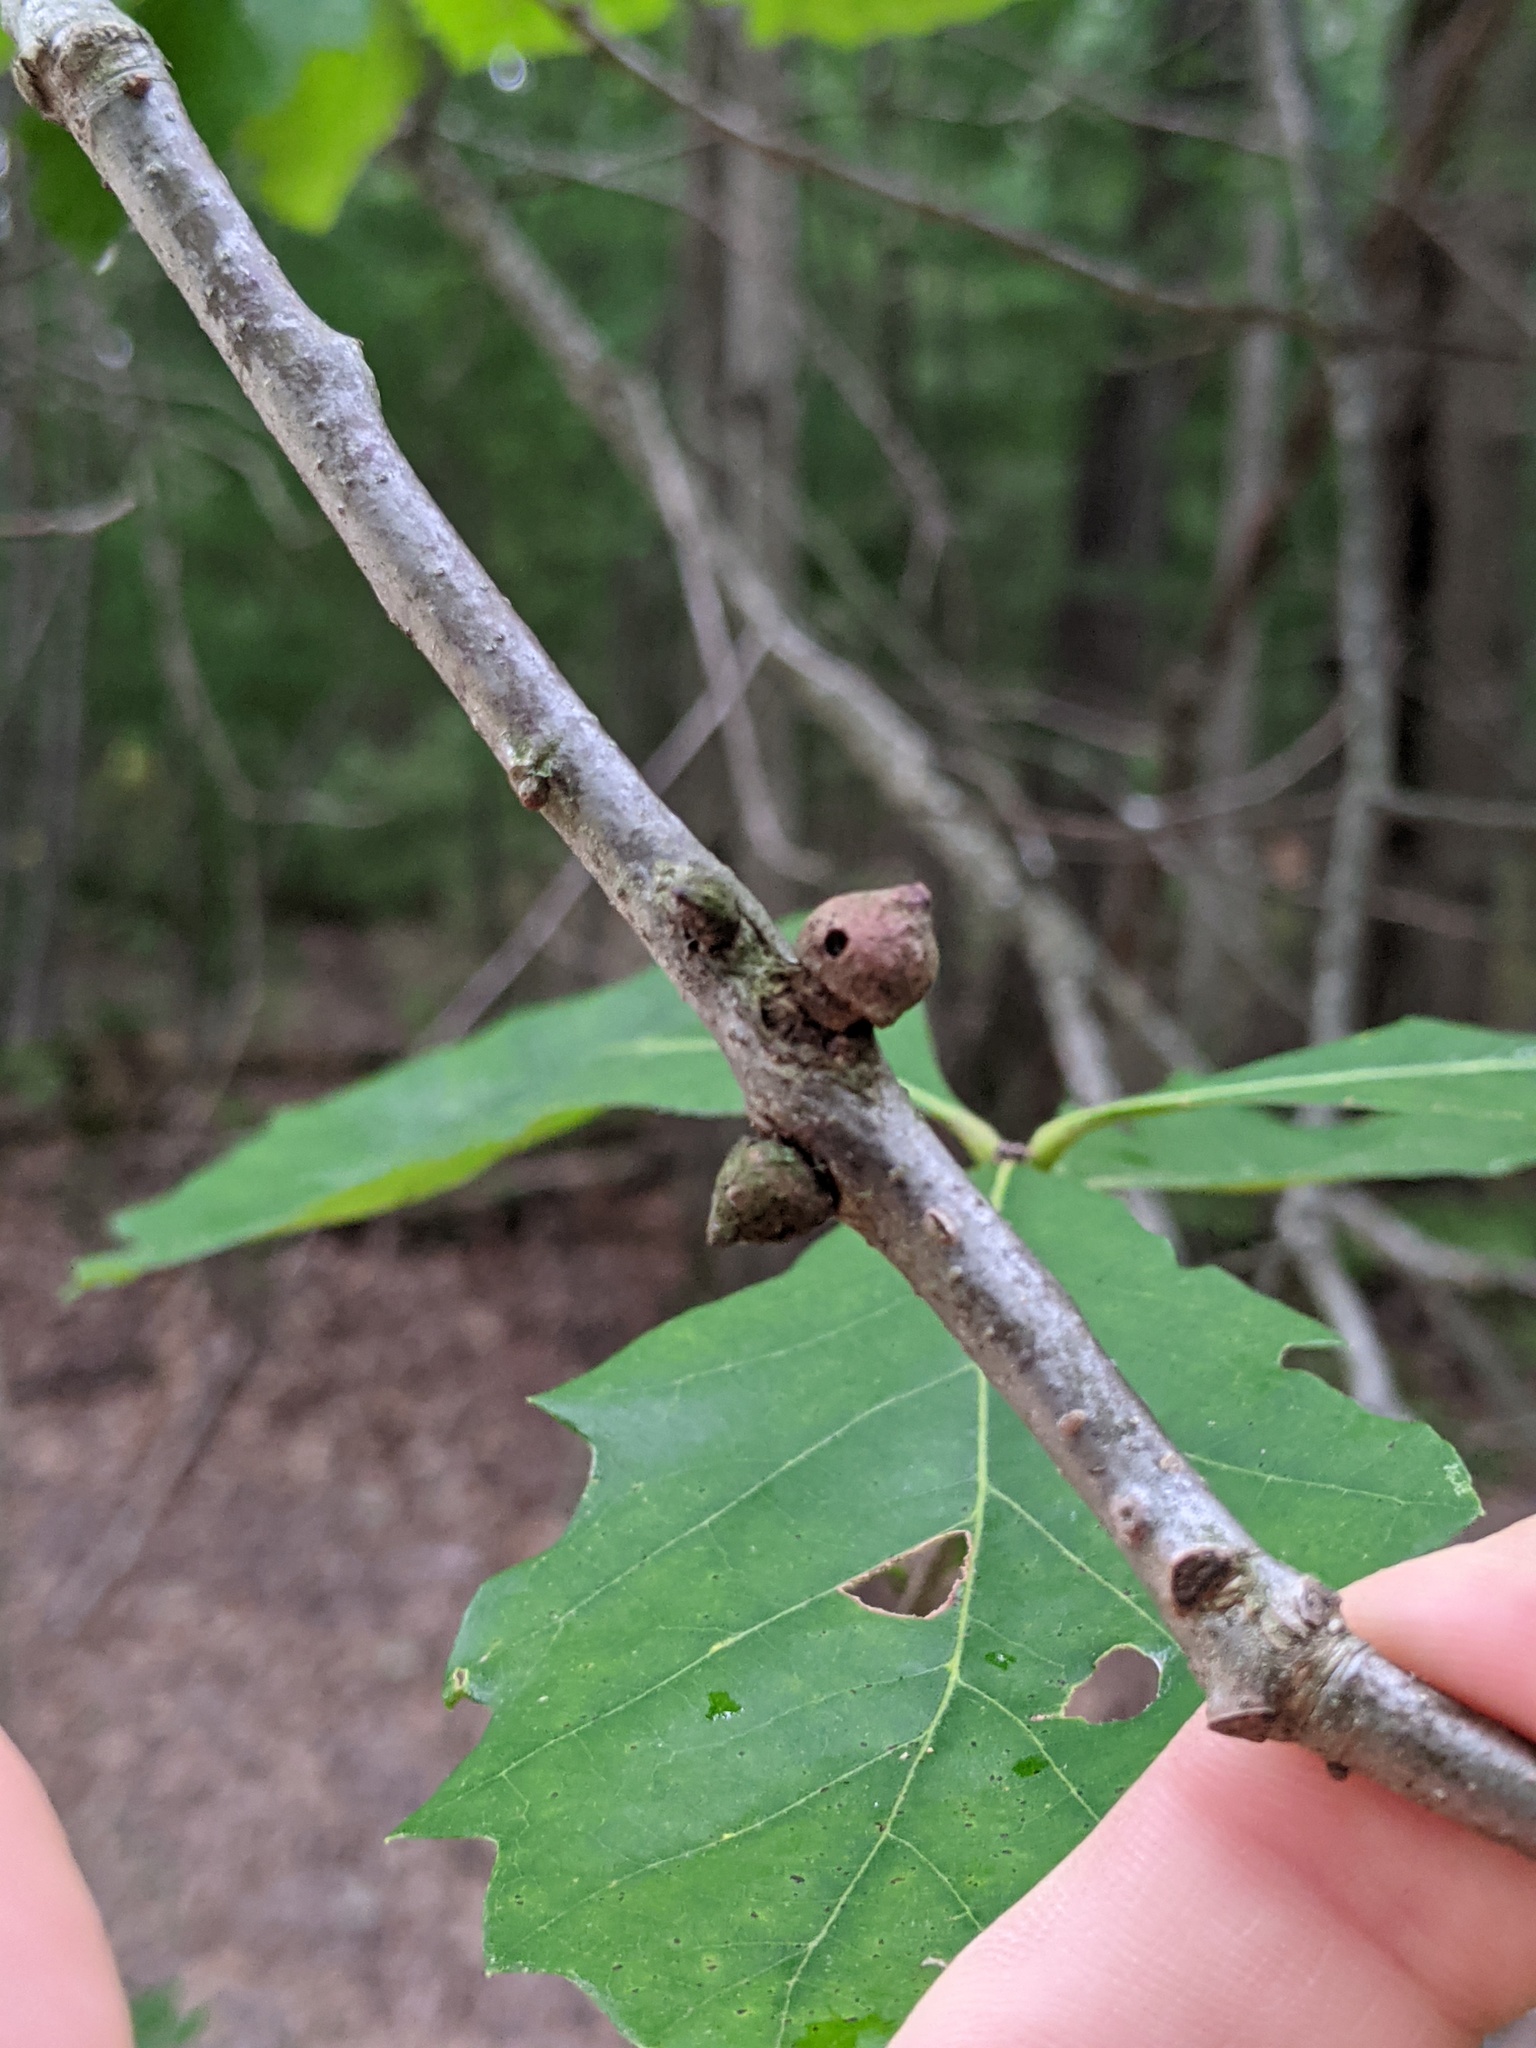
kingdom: Animalia
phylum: Arthropoda
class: Insecta
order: Hymenoptera
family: Cynipidae
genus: Disholcaspis
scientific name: Disholcaspis
